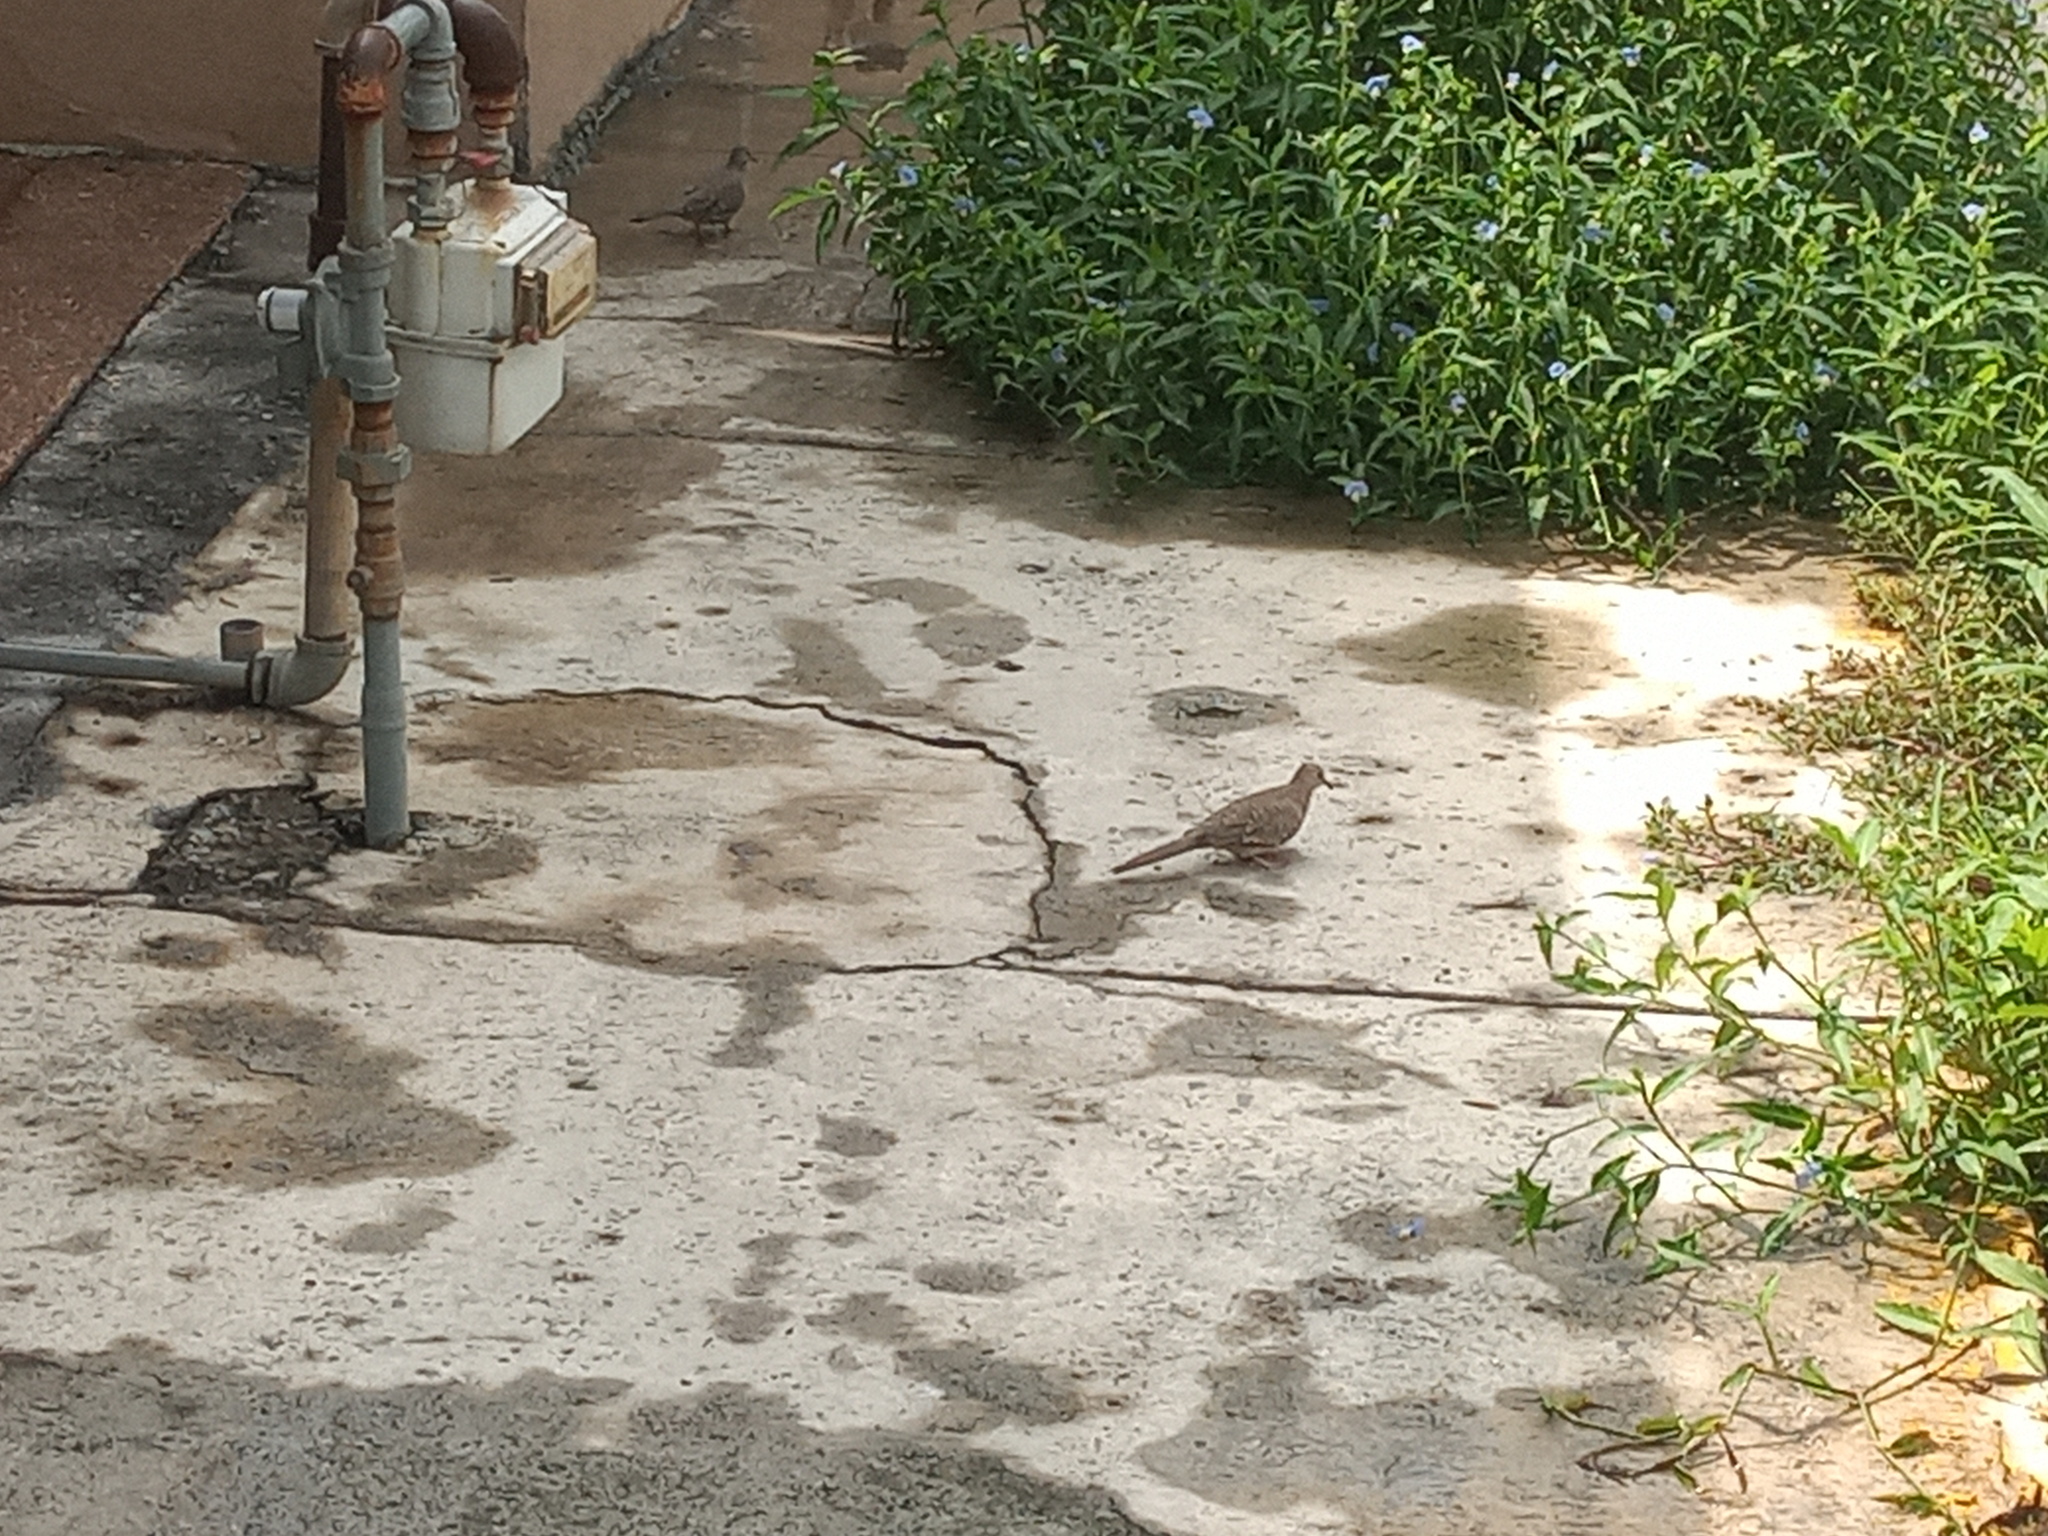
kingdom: Animalia
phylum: Chordata
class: Aves
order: Columbiformes
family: Columbidae
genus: Columbina
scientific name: Columbina inca
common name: Inca dove
